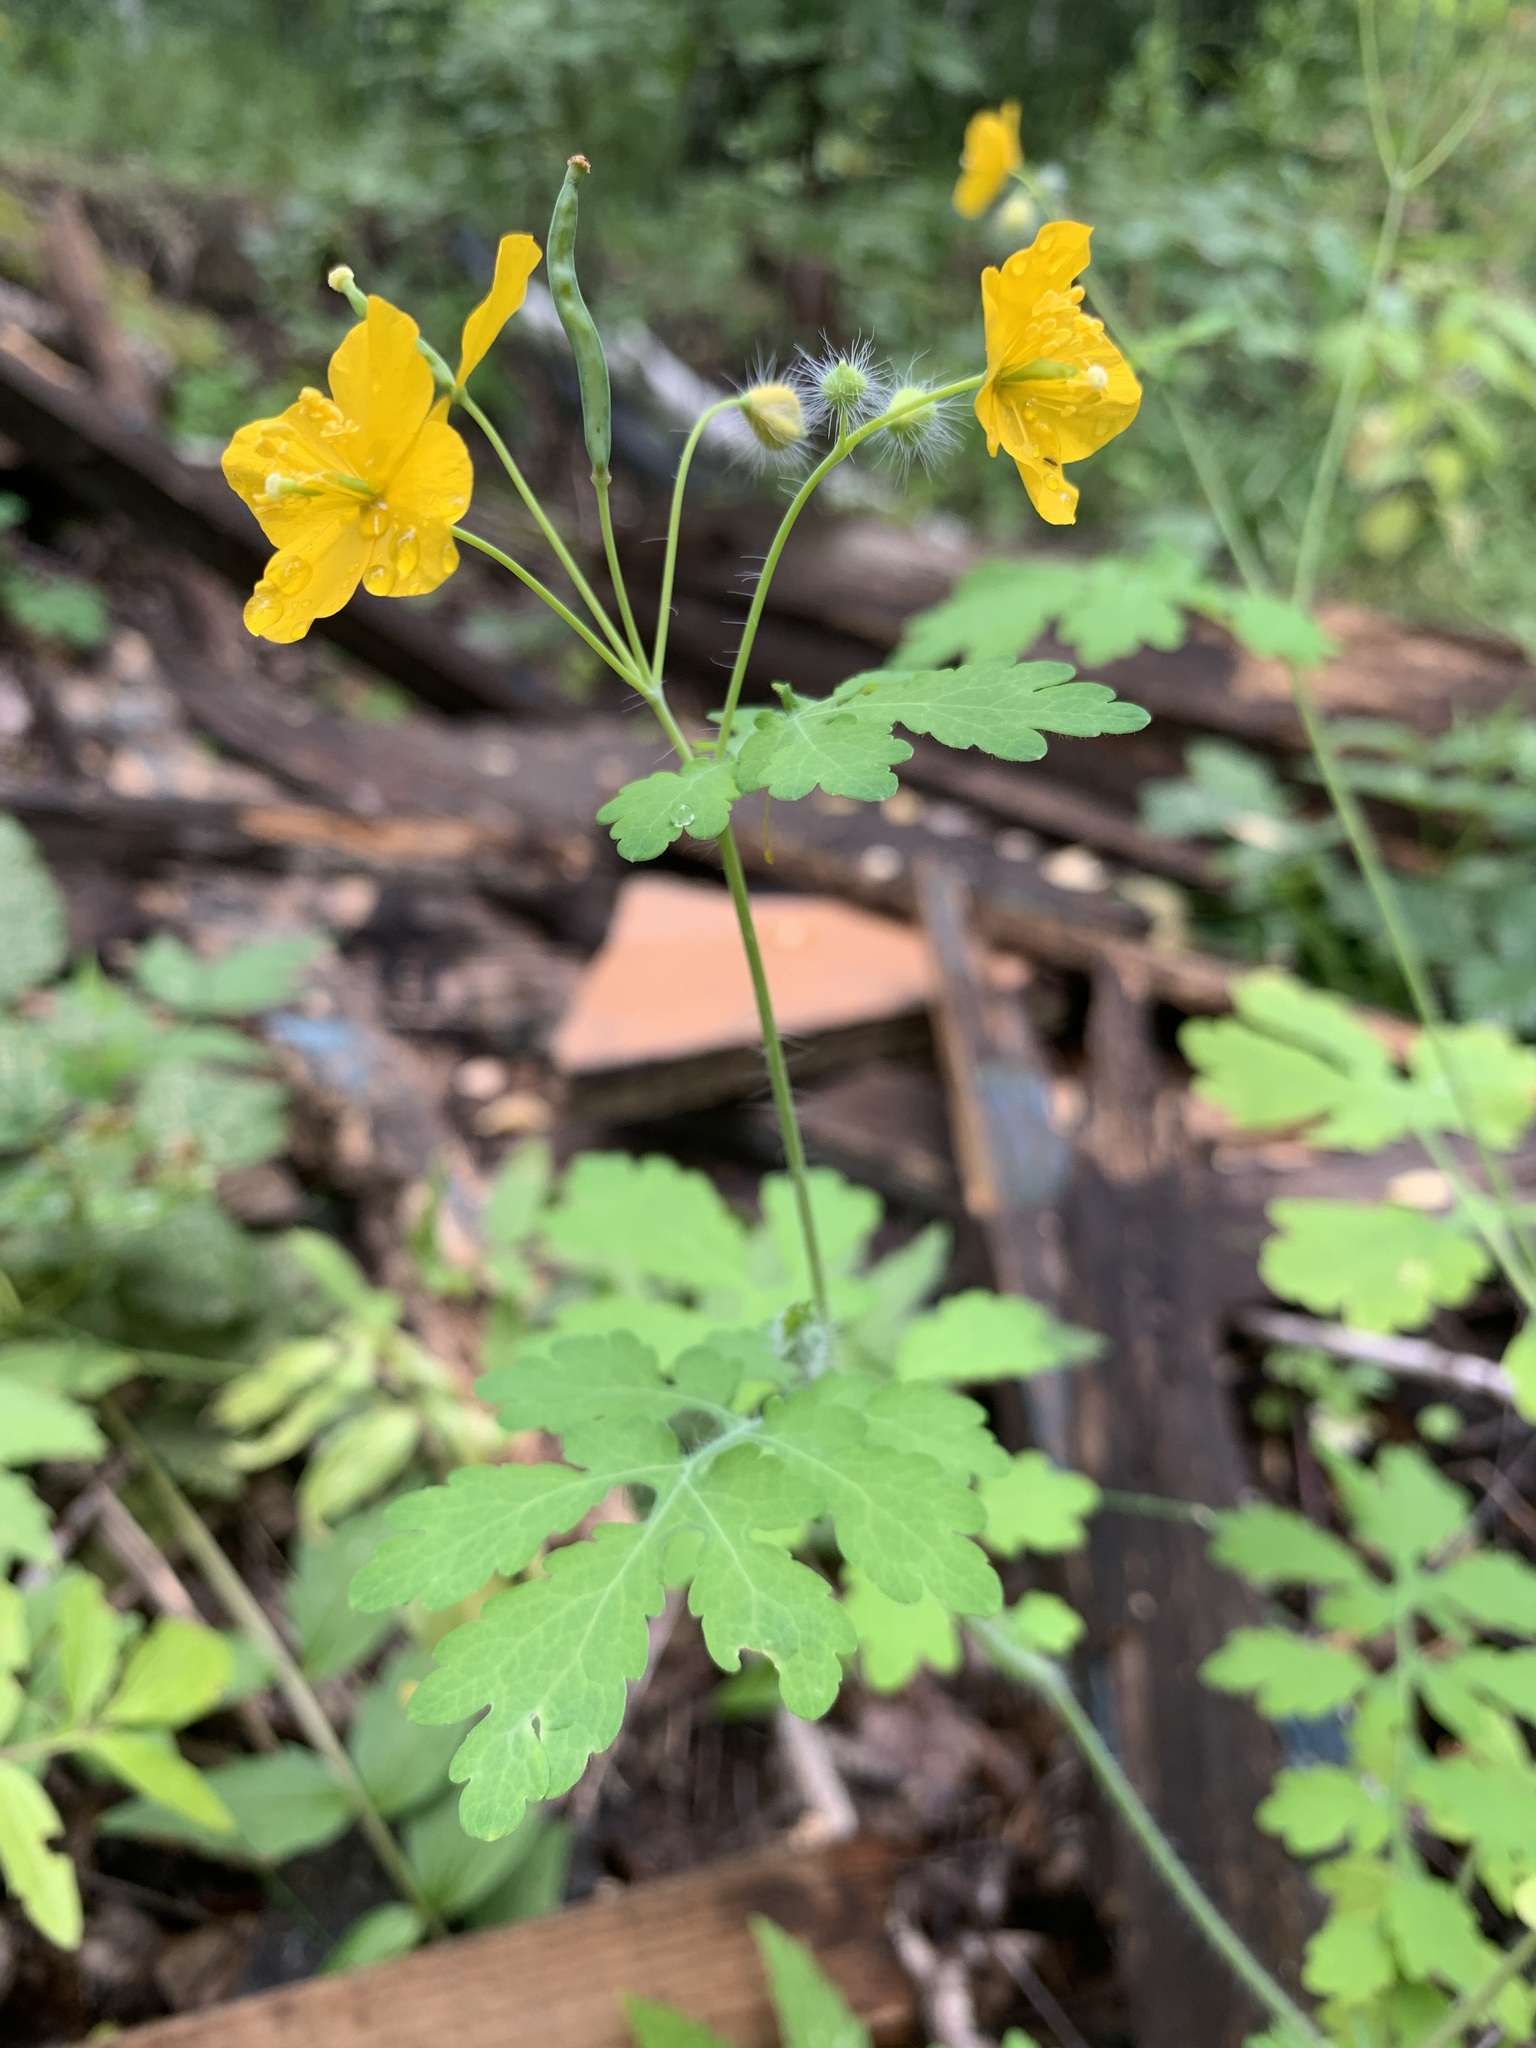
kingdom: Plantae
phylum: Tracheophyta
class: Magnoliopsida
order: Ranunculales
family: Papaveraceae
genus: Chelidonium
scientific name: Chelidonium majus
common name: Greater celandine
